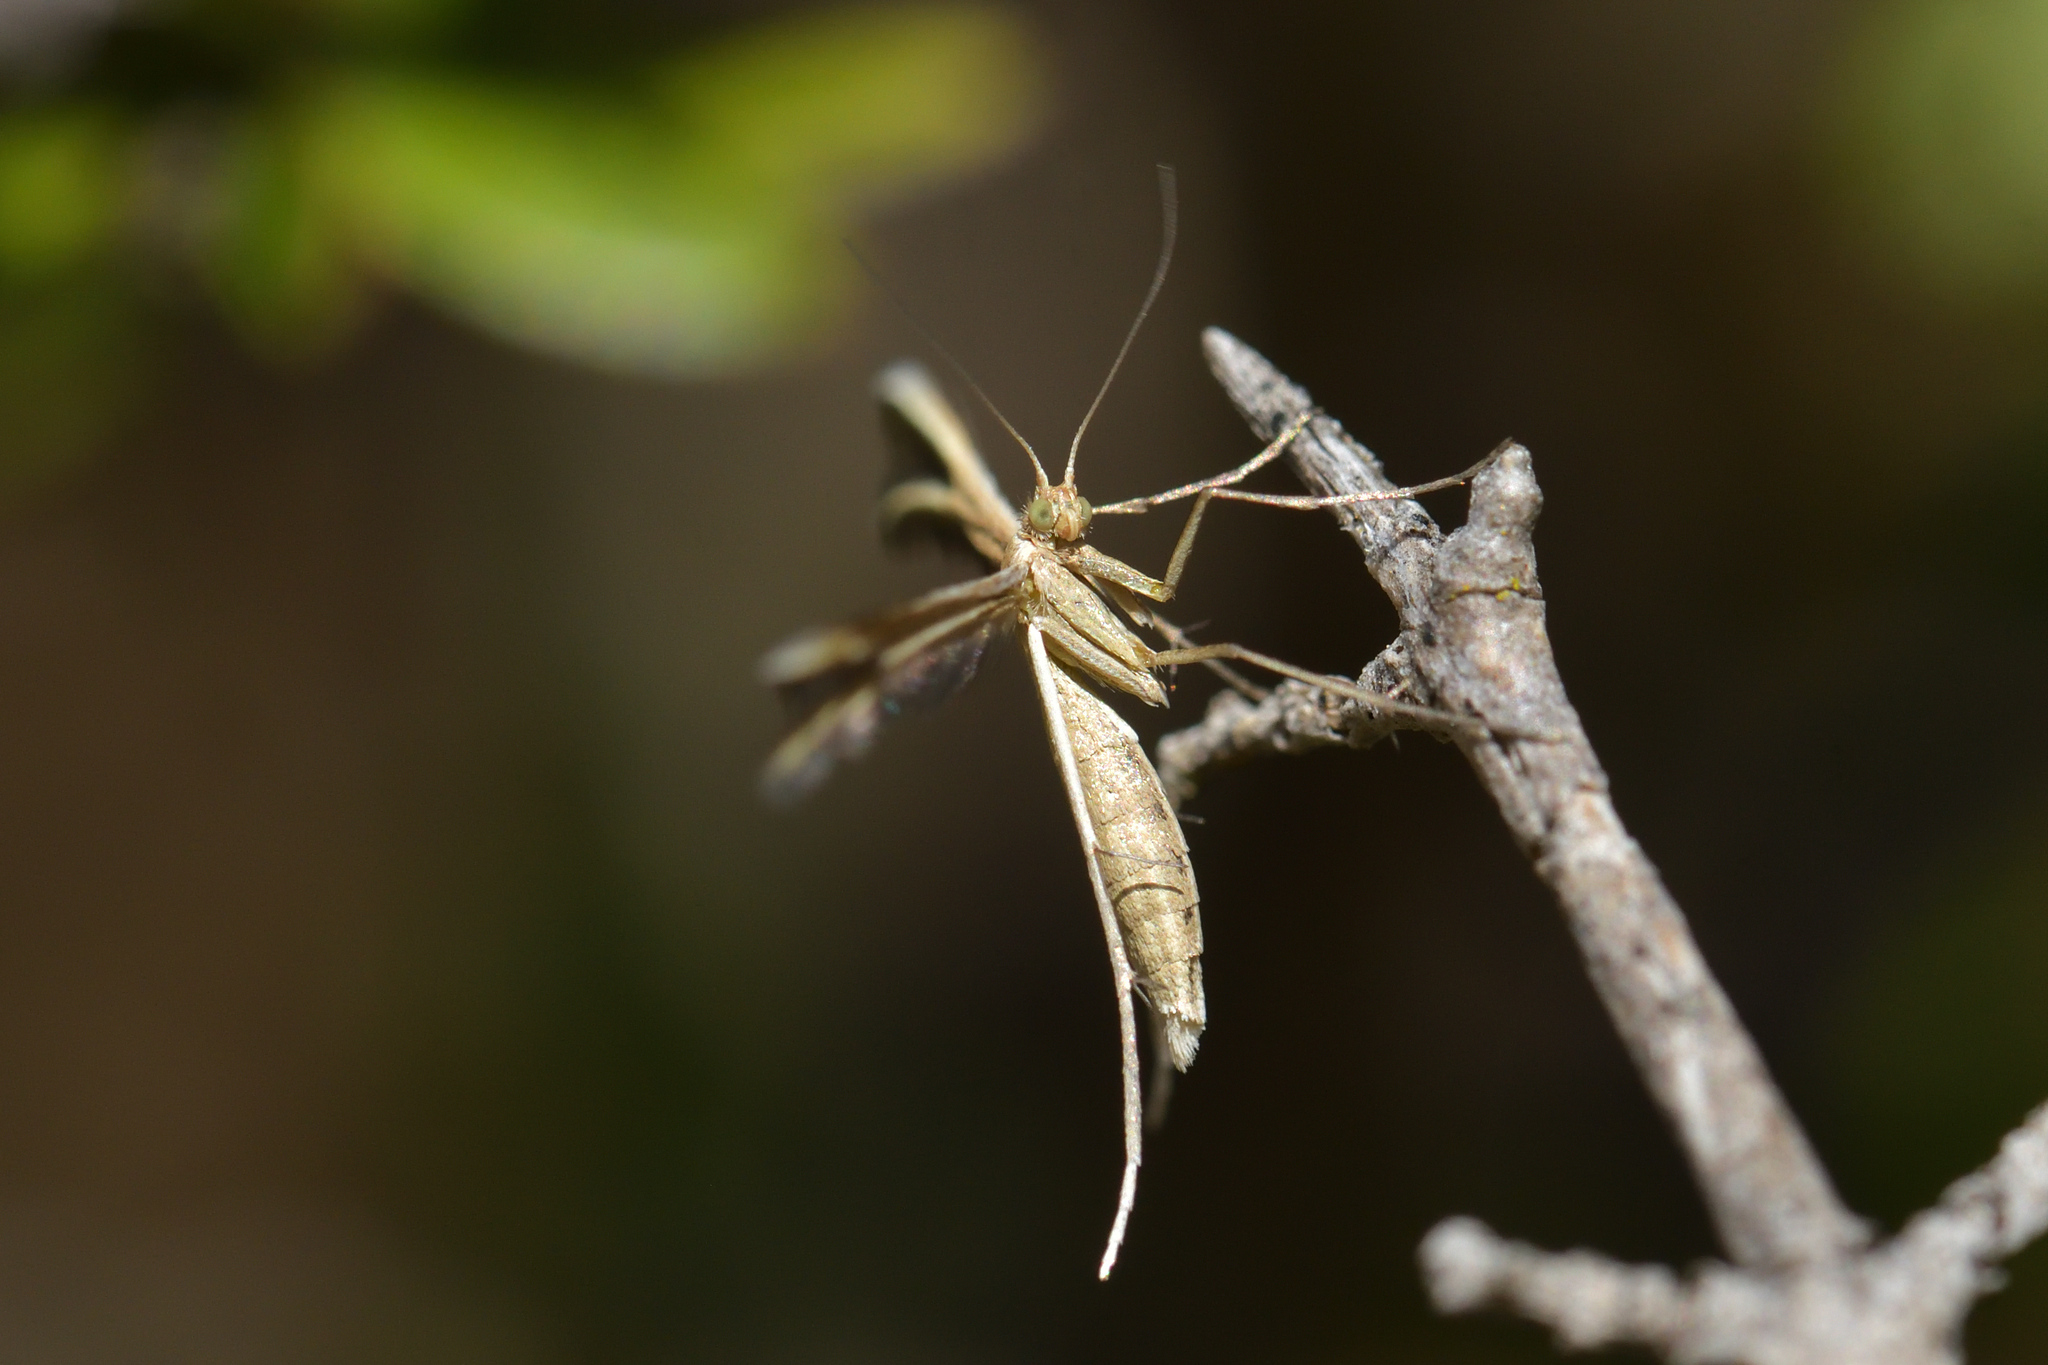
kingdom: Animalia
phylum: Arthropoda
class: Insecta
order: Lepidoptera
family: Pterophoridae
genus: Pterophorus
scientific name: Pterophorus innotatalis
